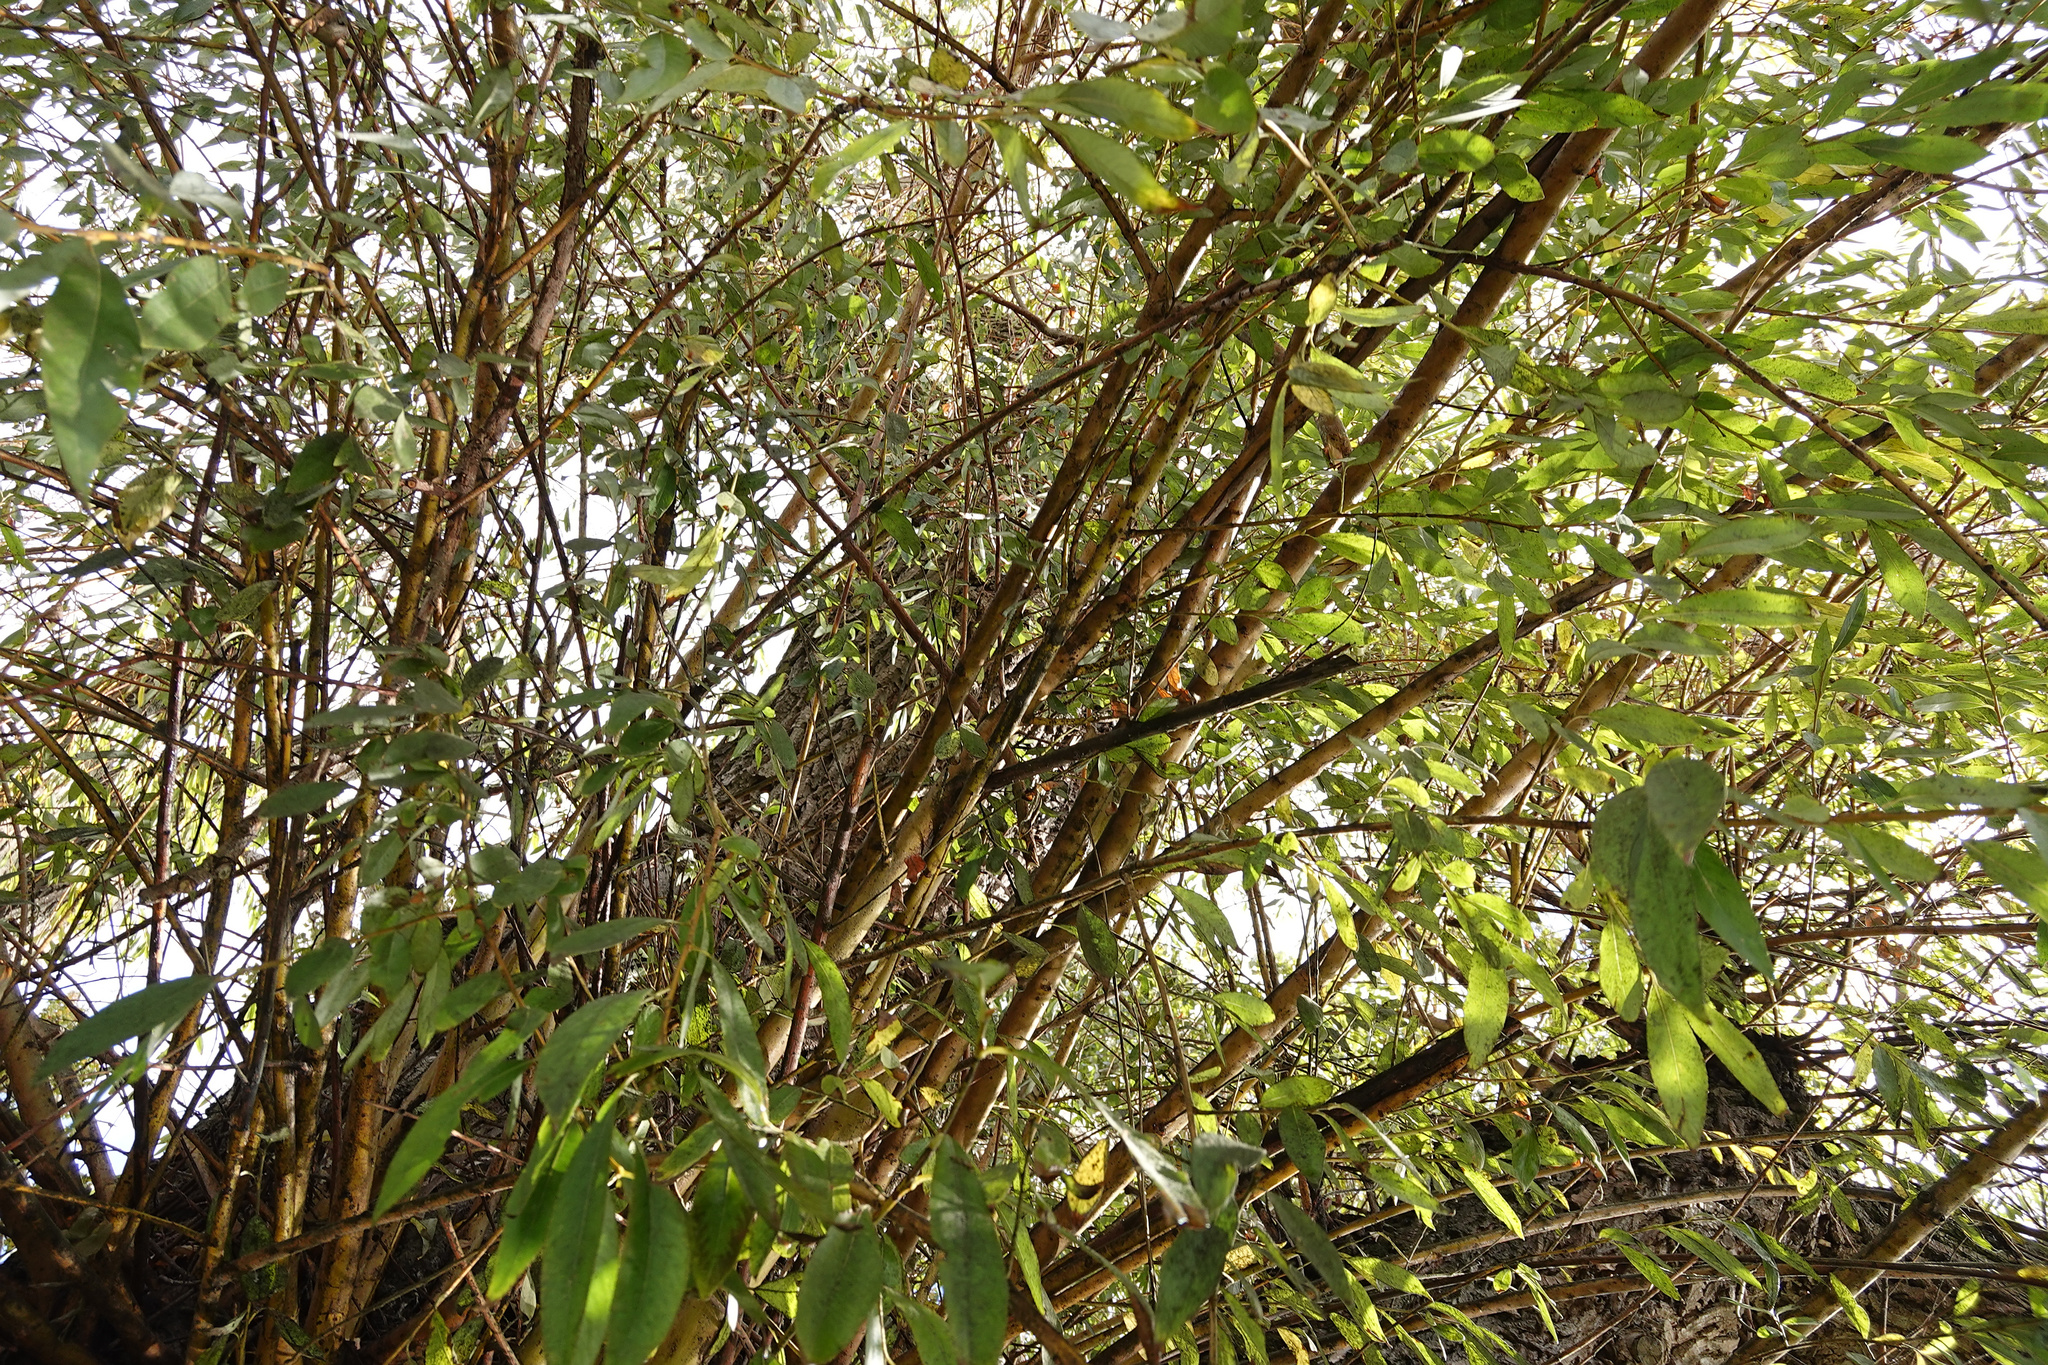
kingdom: Animalia
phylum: Arthropoda
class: Insecta
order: Hemiptera
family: Aphididae
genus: Tuberolachnus
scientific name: Tuberolachnus salignus
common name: Giant willow aphid
